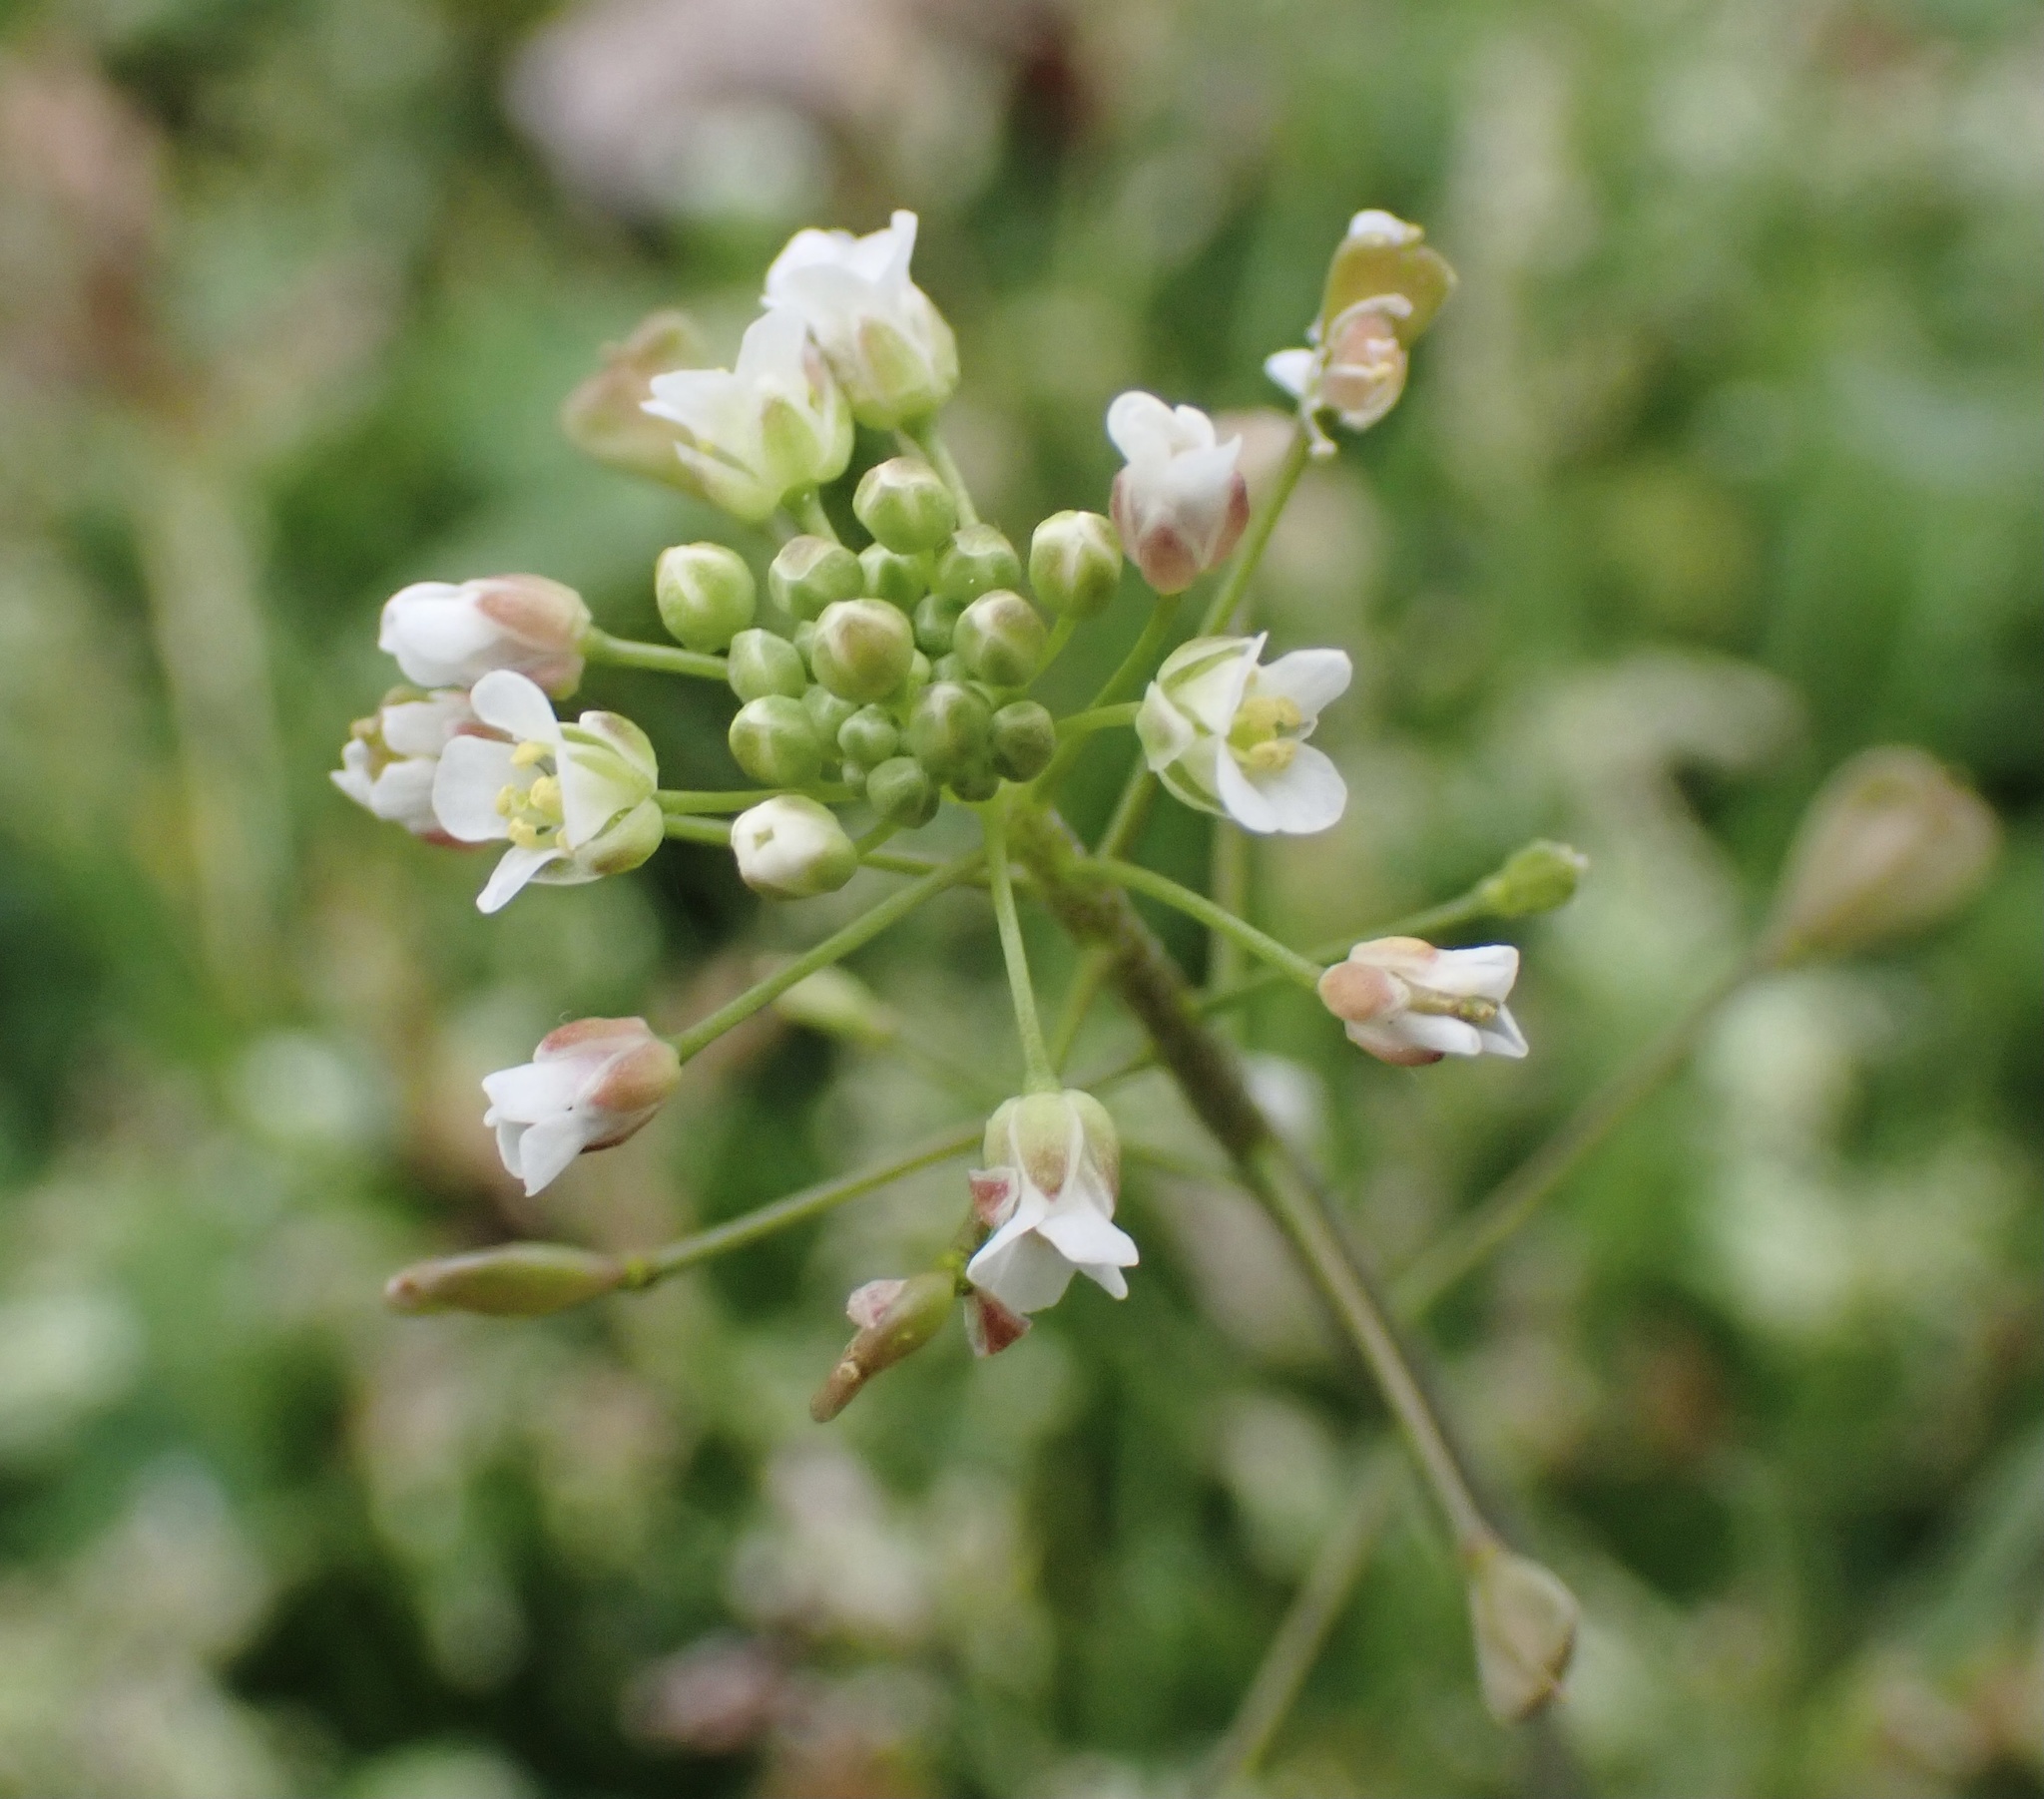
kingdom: Plantae
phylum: Tracheophyta
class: Magnoliopsida
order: Brassicales
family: Brassicaceae
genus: Capsella
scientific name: Capsella bursa-pastoris
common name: Shepherd's purse
